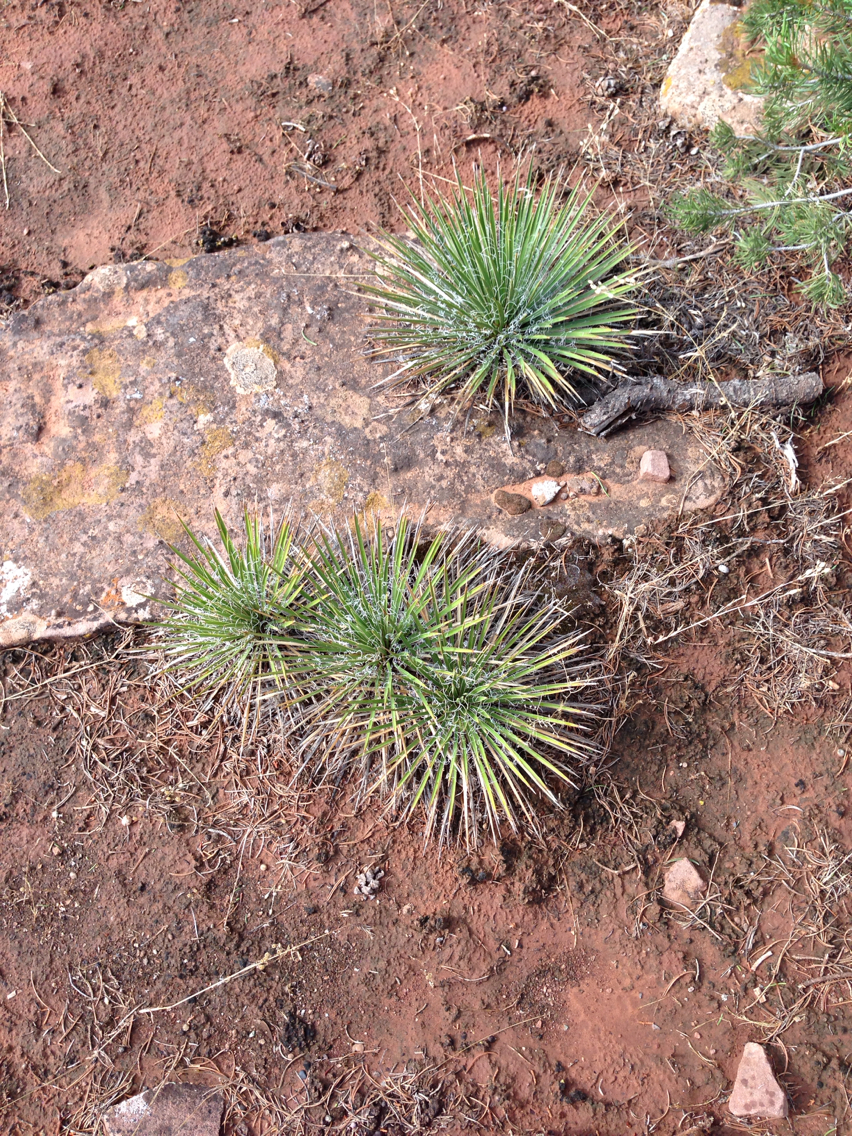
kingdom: Plantae
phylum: Tracheophyta
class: Liliopsida
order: Asparagales
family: Asparagaceae
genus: Yucca
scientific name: Yucca harrimaniae
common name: Harriman's yucca
